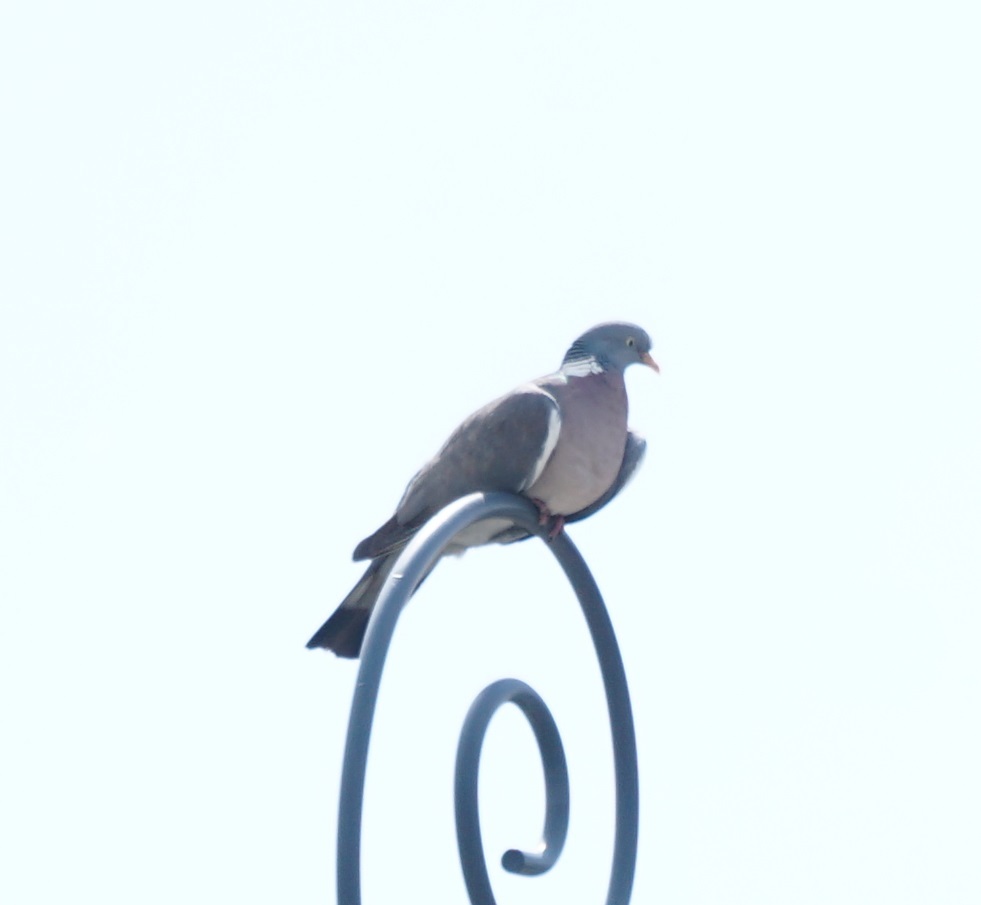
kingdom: Animalia
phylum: Chordata
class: Aves
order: Columbiformes
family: Columbidae
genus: Columba
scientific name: Columba palumbus
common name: Common wood pigeon
